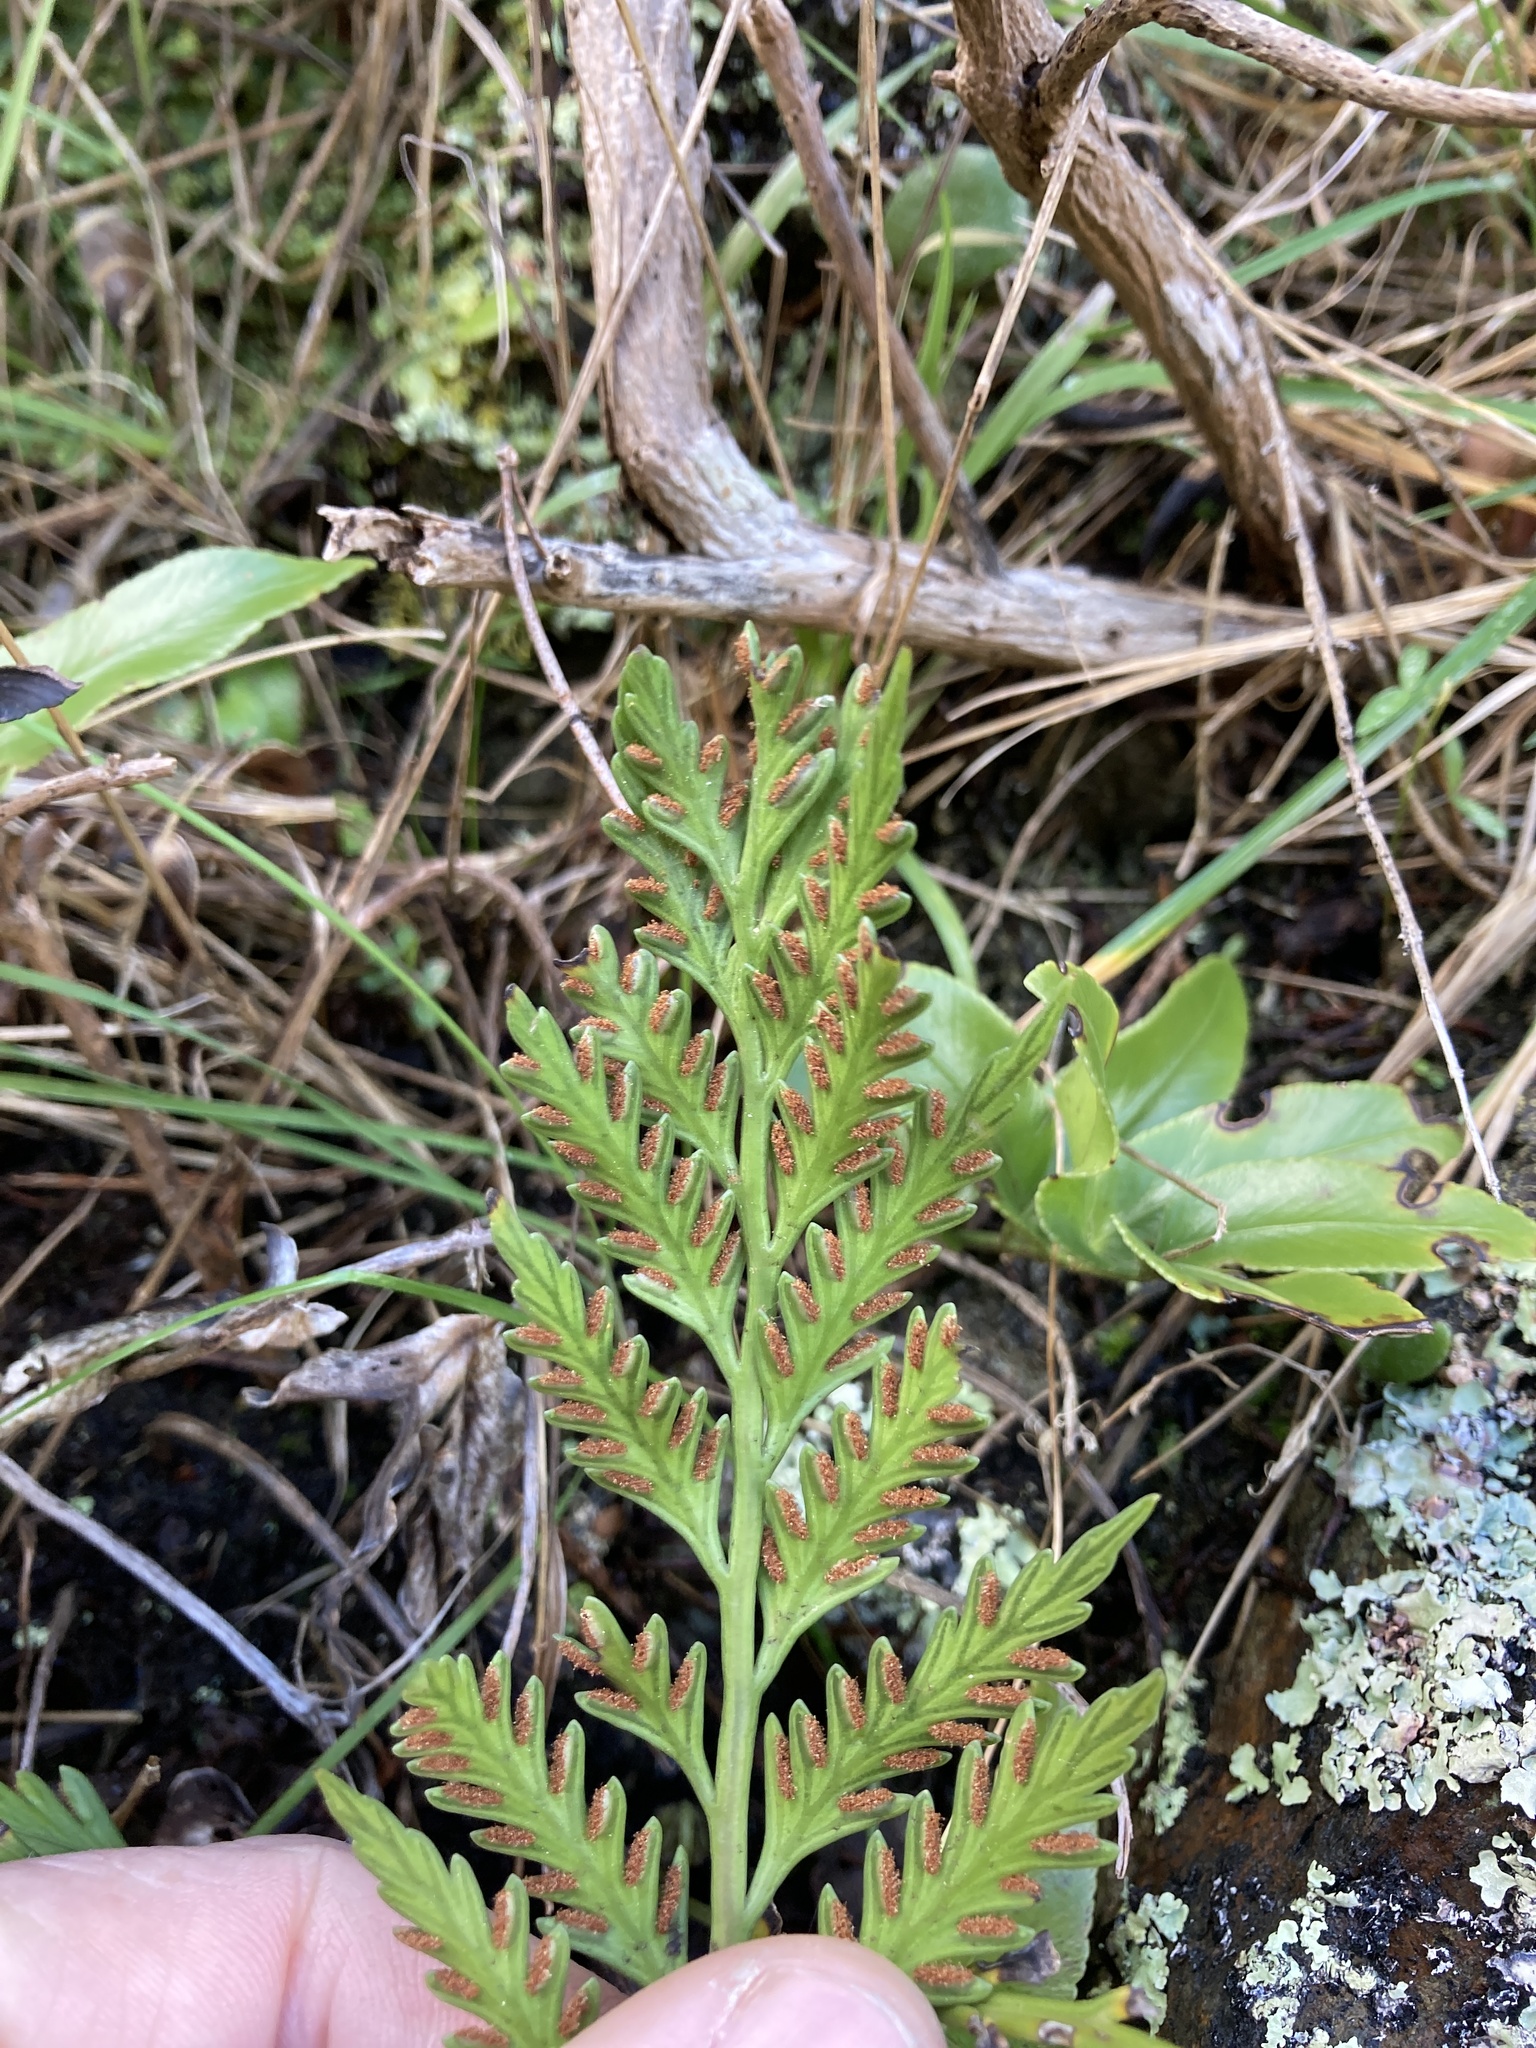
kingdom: Plantae
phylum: Tracheophyta
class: Polypodiopsida
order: Polypodiales
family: Aspleniaceae
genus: Asplenium
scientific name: Asplenium appendiculatum
